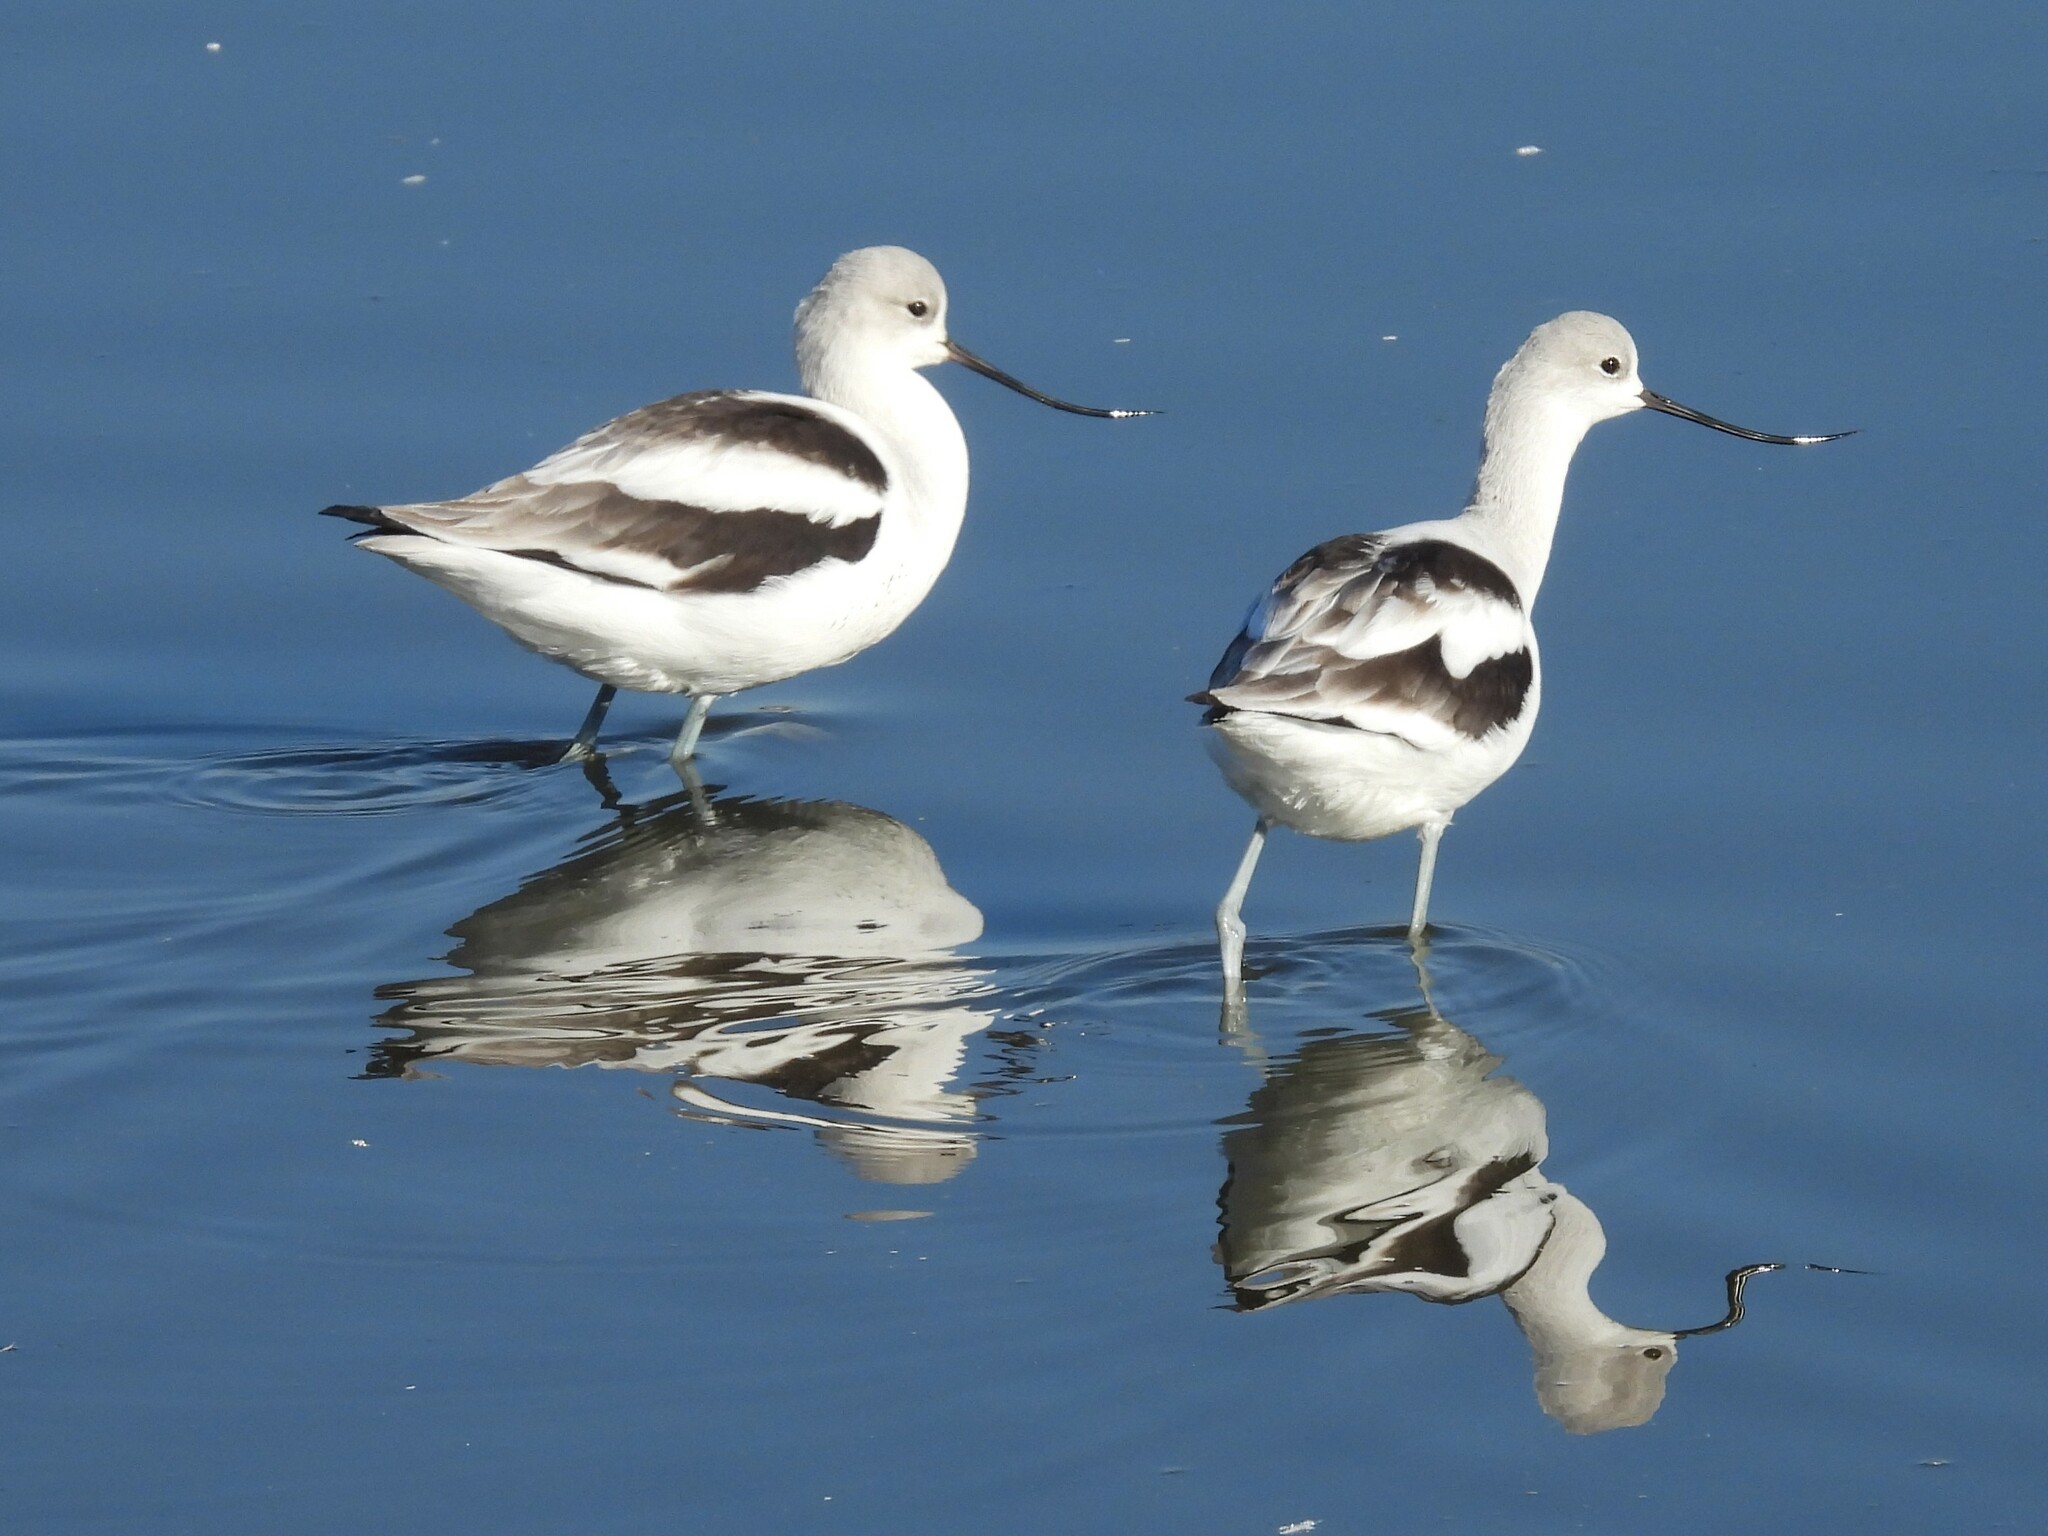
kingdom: Animalia
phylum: Chordata
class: Aves
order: Charadriiformes
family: Recurvirostridae
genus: Recurvirostra
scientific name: Recurvirostra americana
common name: American avocet
